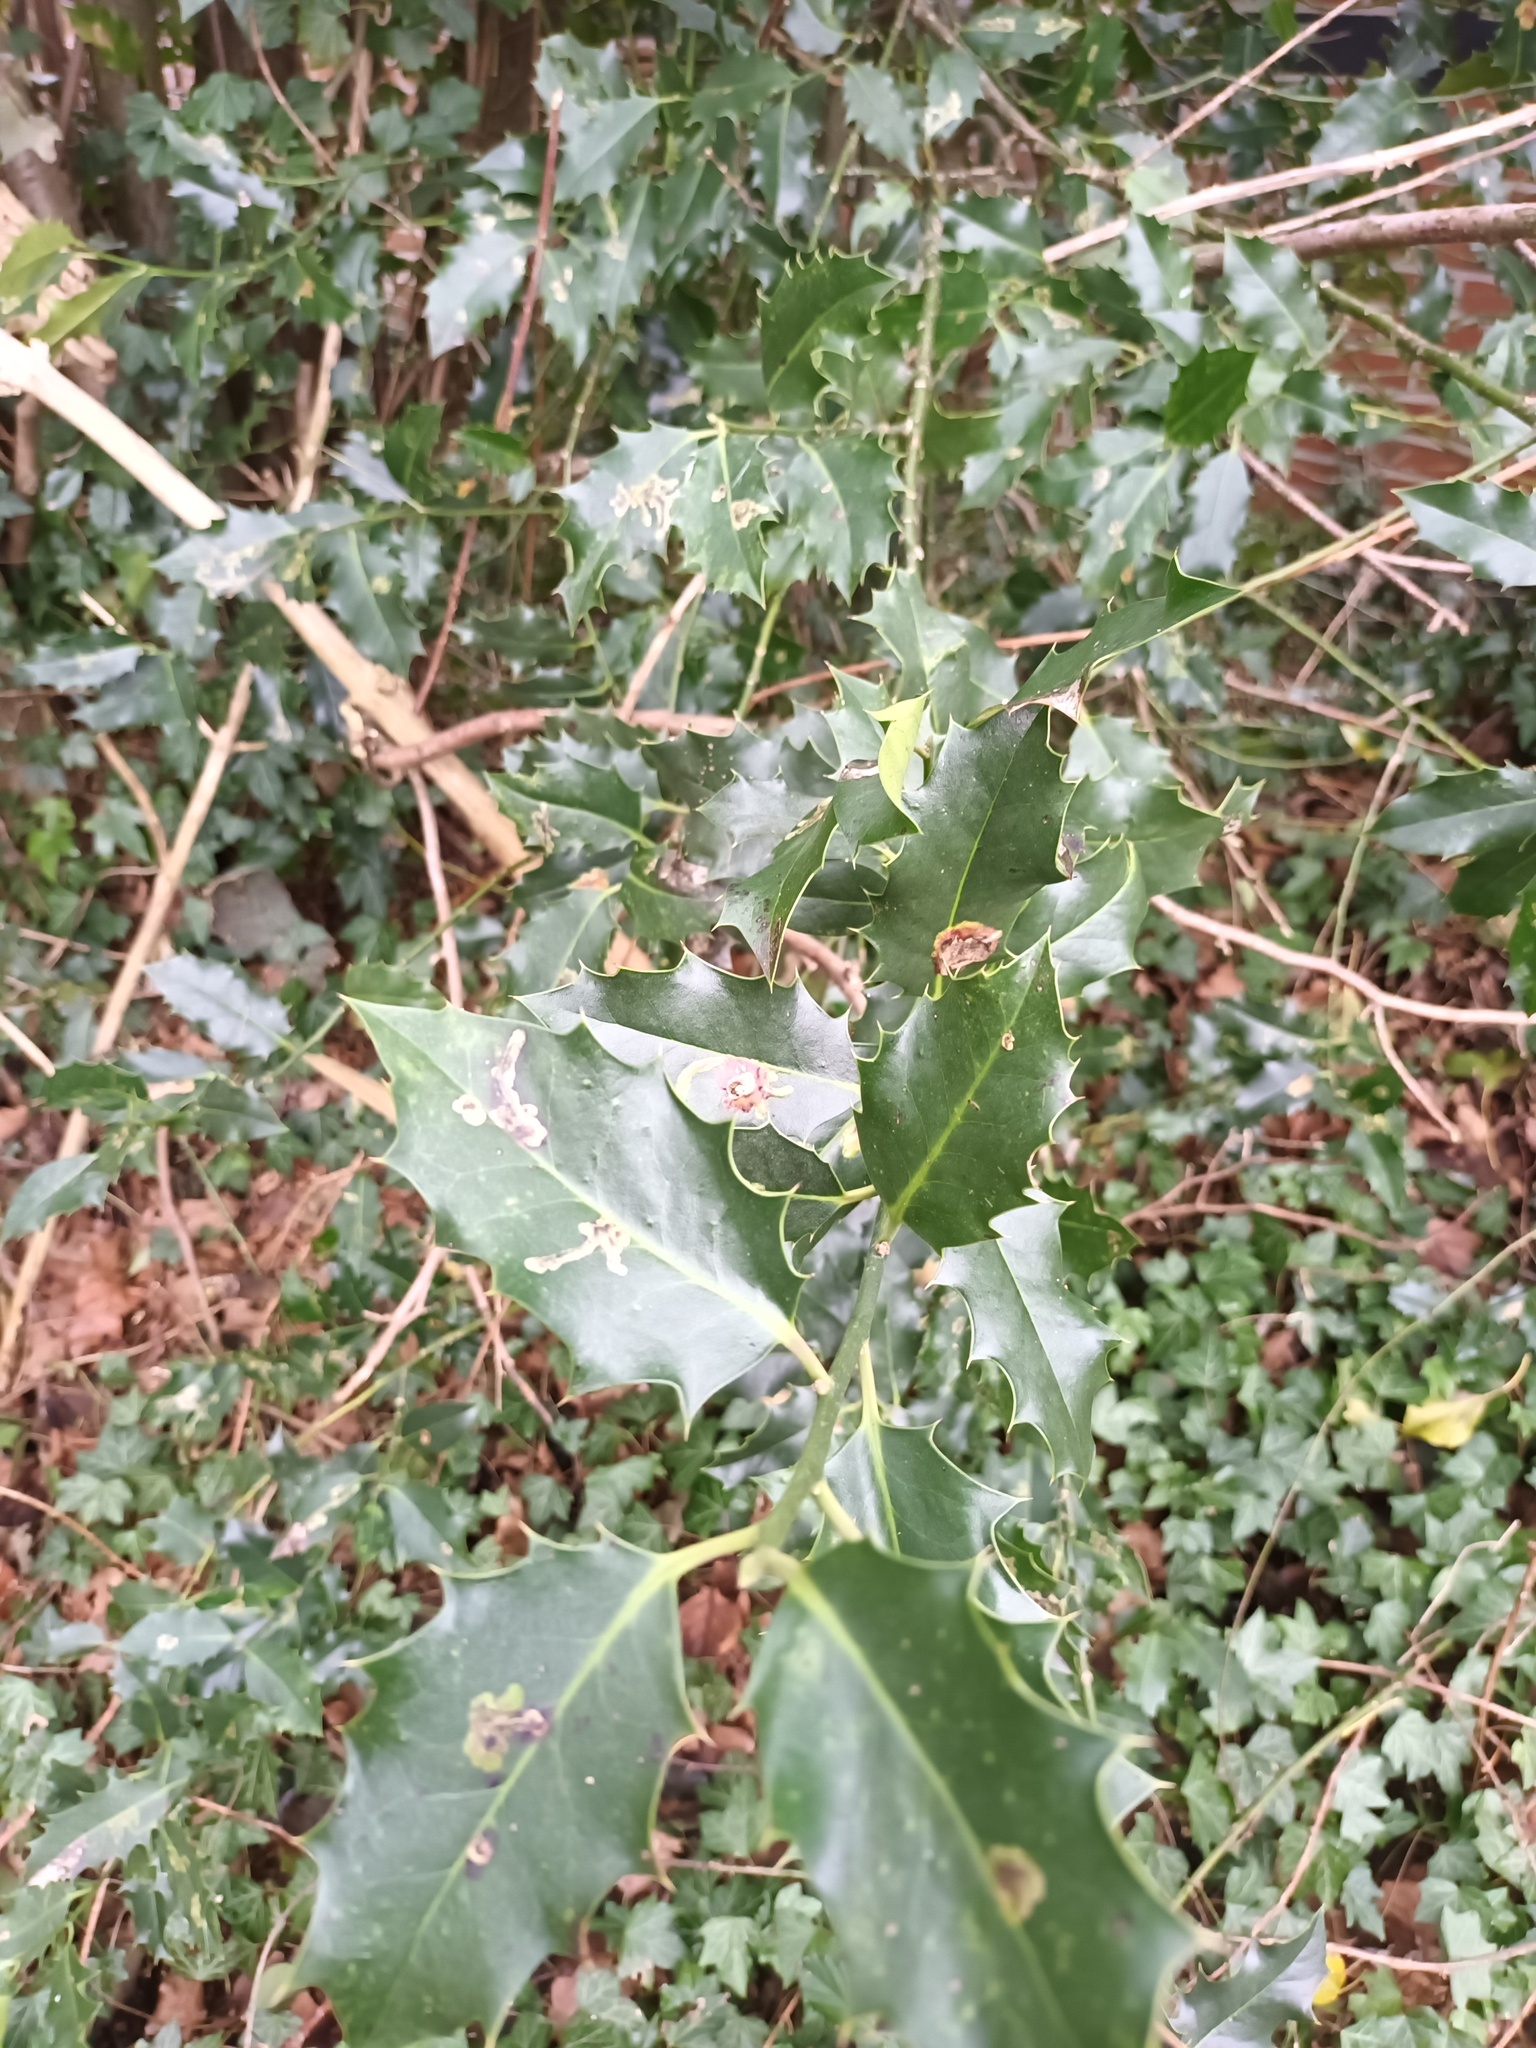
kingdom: Plantae
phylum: Tracheophyta
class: Magnoliopsida
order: Aquifoliales
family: Aquifoliaceae
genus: Ilex
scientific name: Ilex aquifolium
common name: English holly
